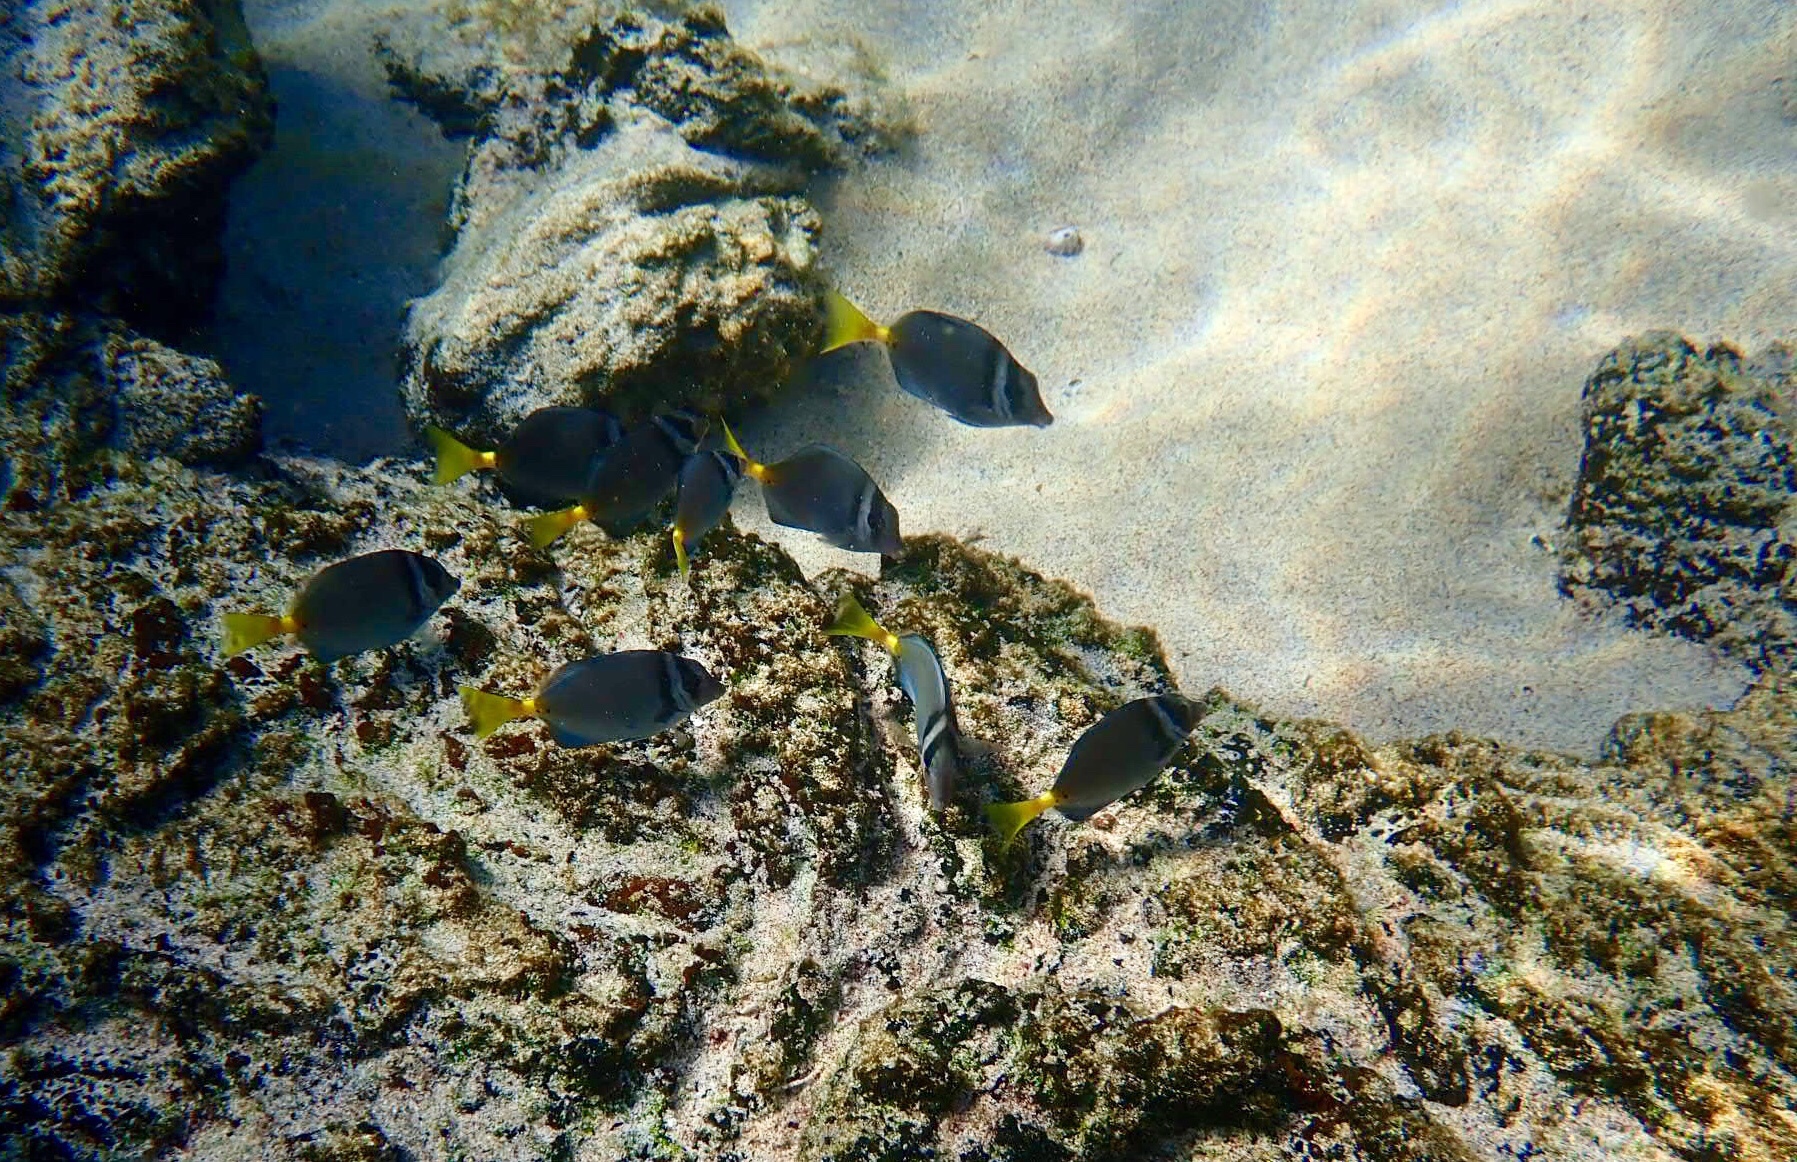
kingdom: Animalia
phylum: Chordata
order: Perciformes
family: Acanthuridae
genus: Prionurus
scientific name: Prionurus laticlavius
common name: Razor surgeonfish
